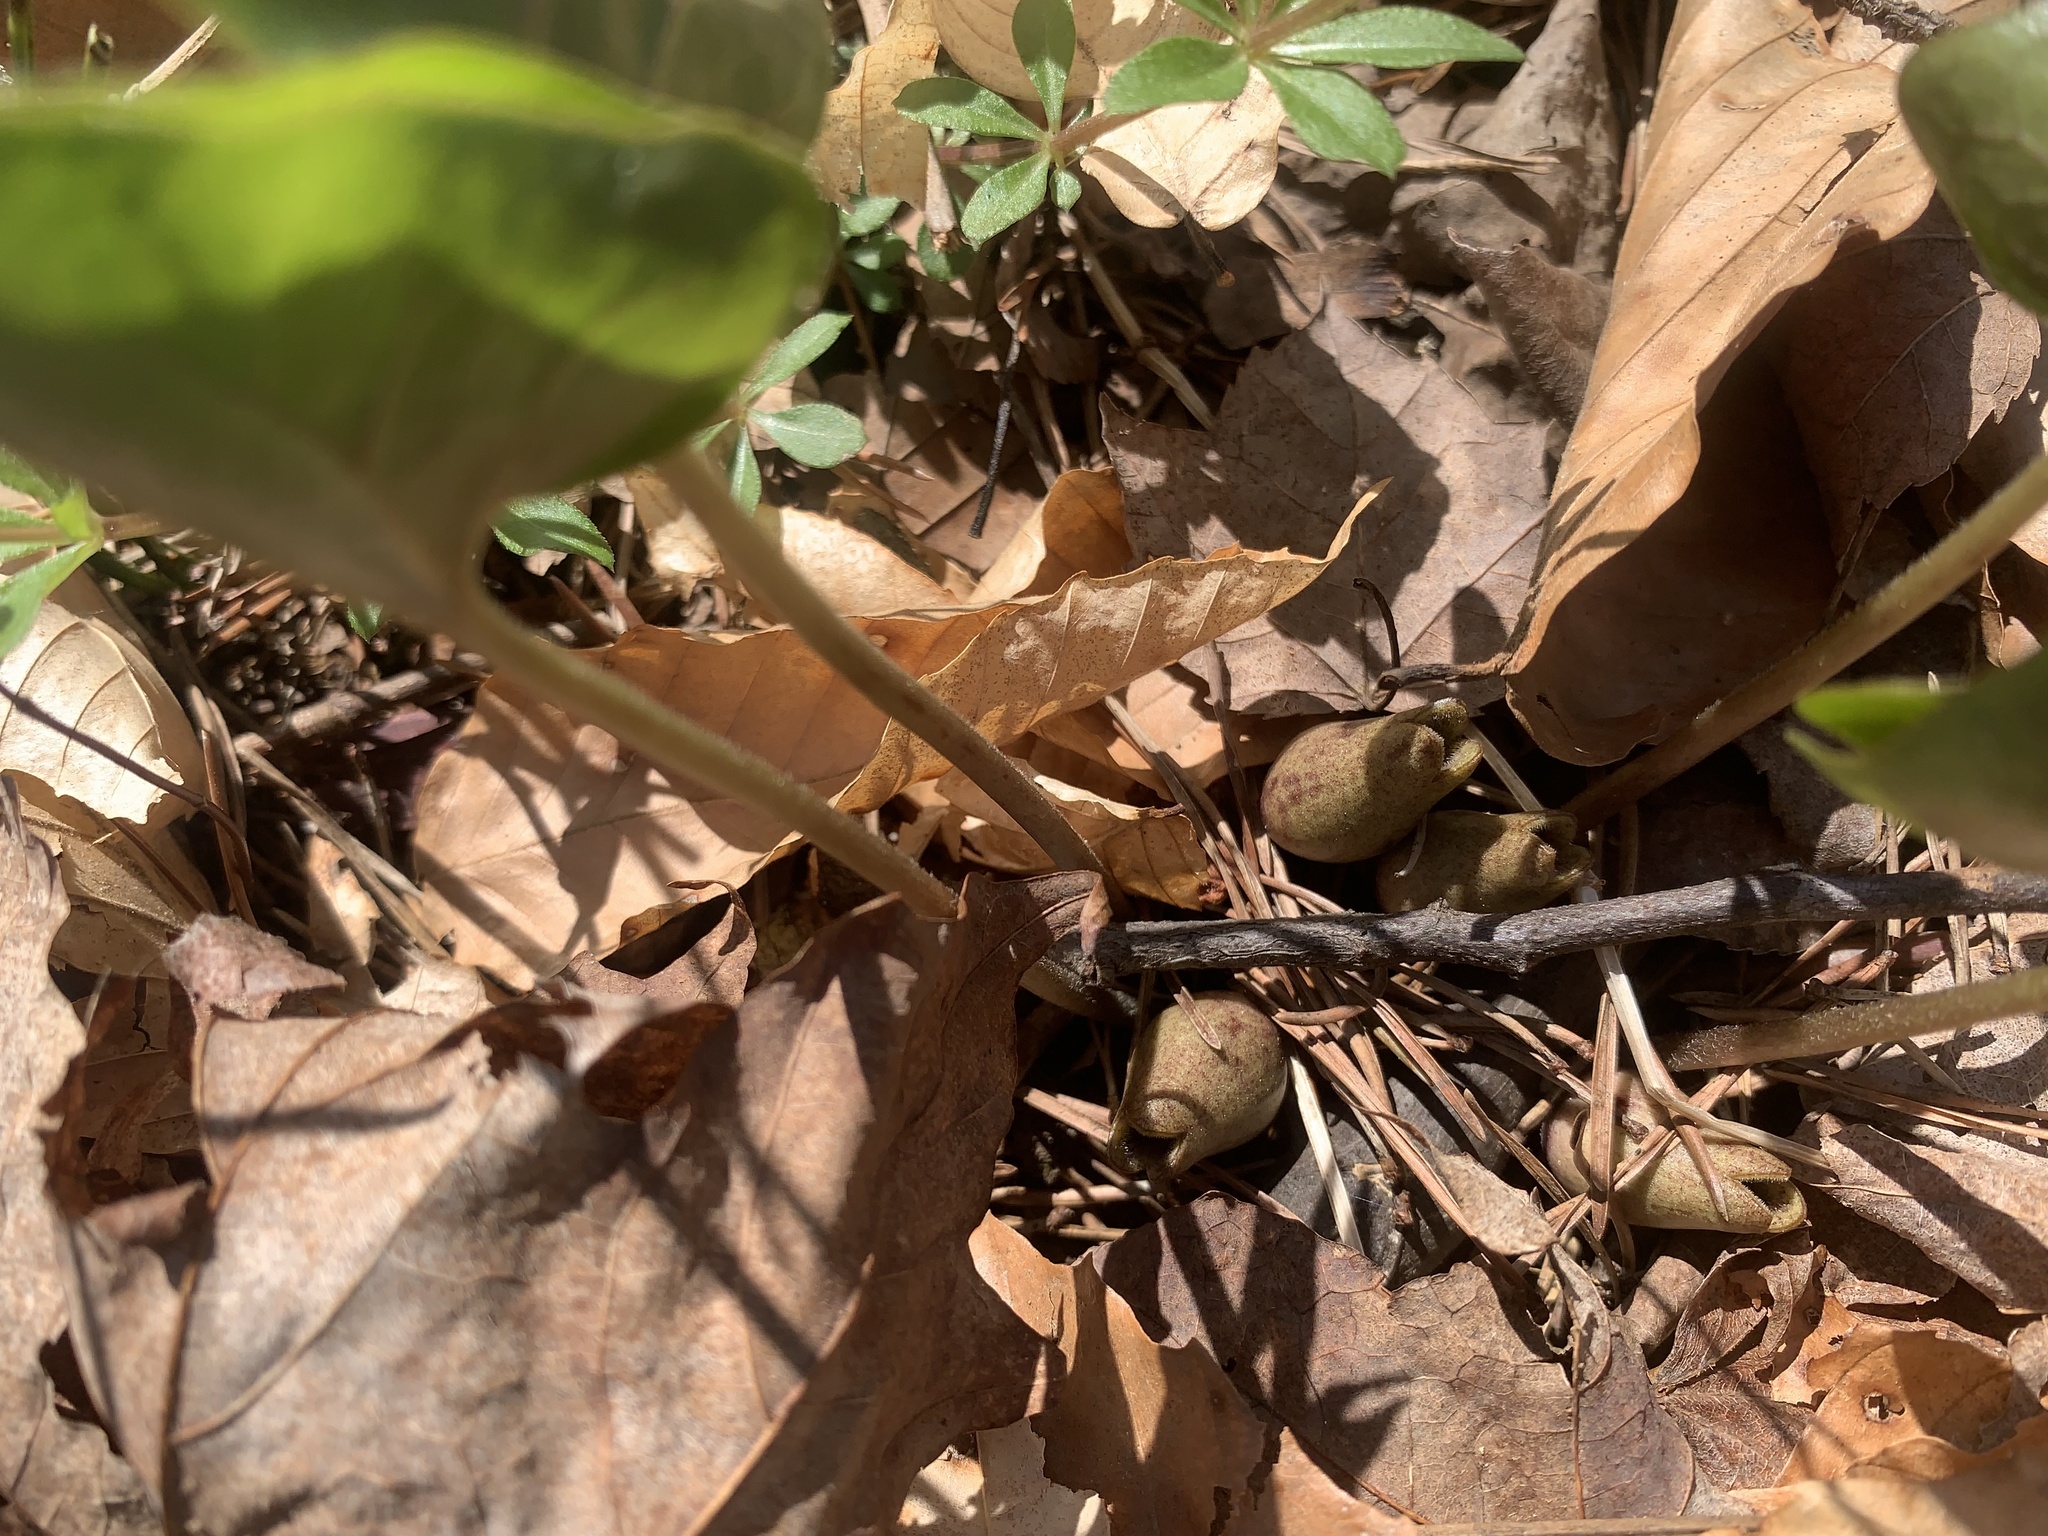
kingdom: Plantae
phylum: Tracheophyta
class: Magnoliopsida
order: Piperales
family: Aristolochiaceae
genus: Hexastylis
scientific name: Hexastylis arifolia
